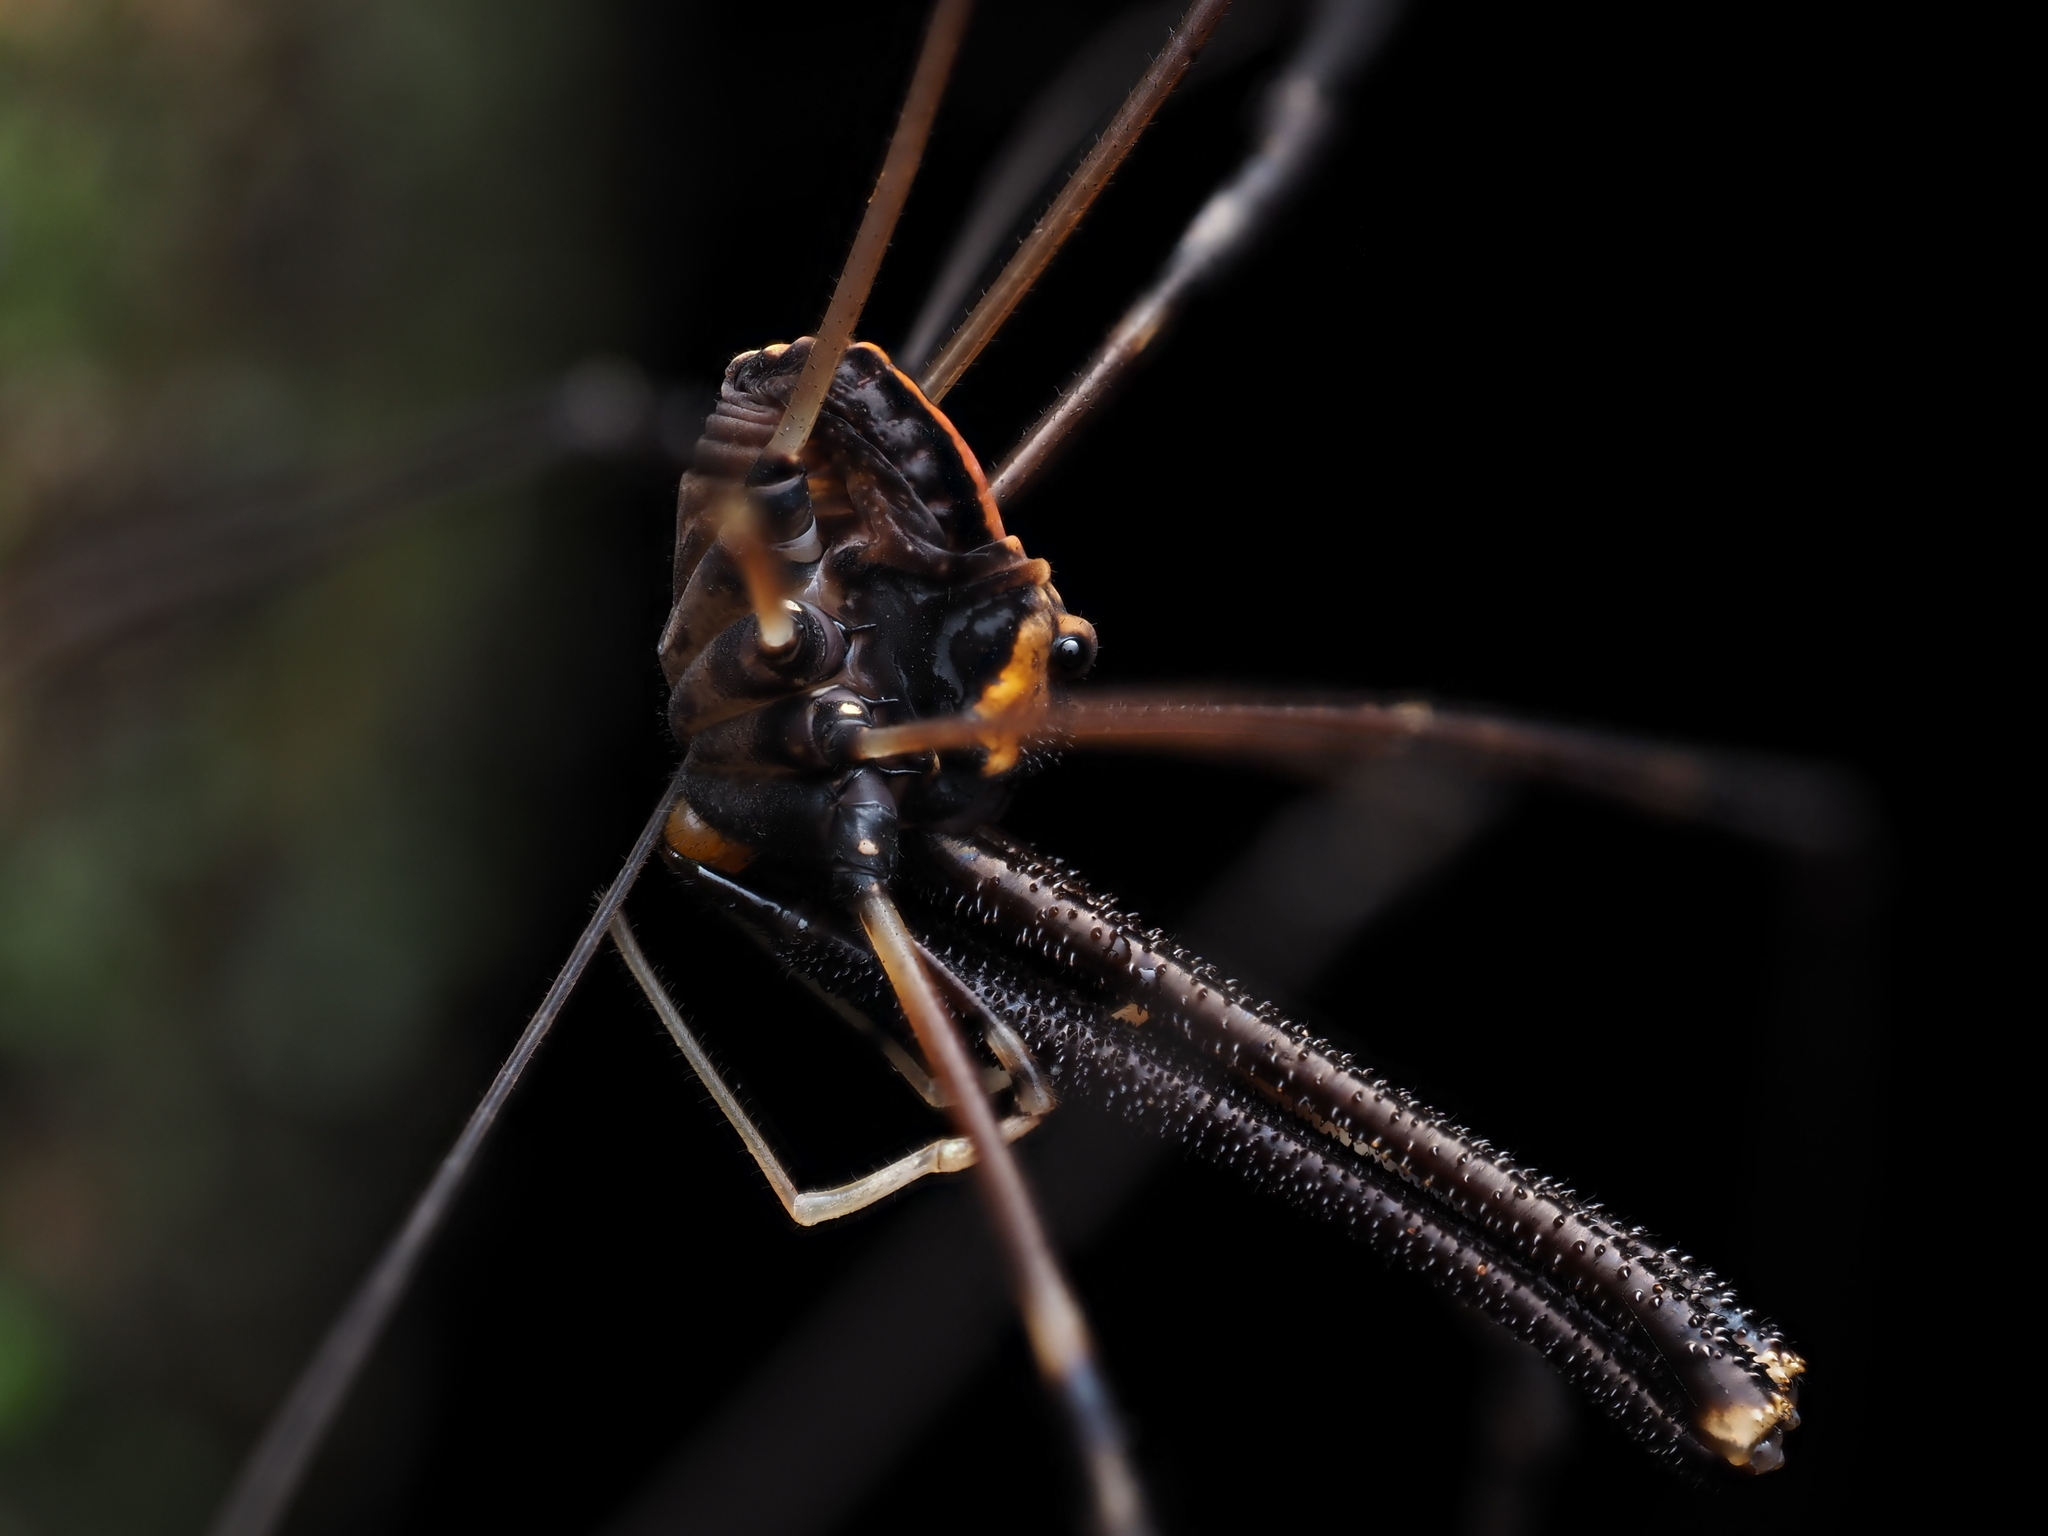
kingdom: Animalia
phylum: Arthropoda
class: Arachnida
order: Opiliones
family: Neopilionidae
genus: Forsteropsalis
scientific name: Forsteropsalis pureora
